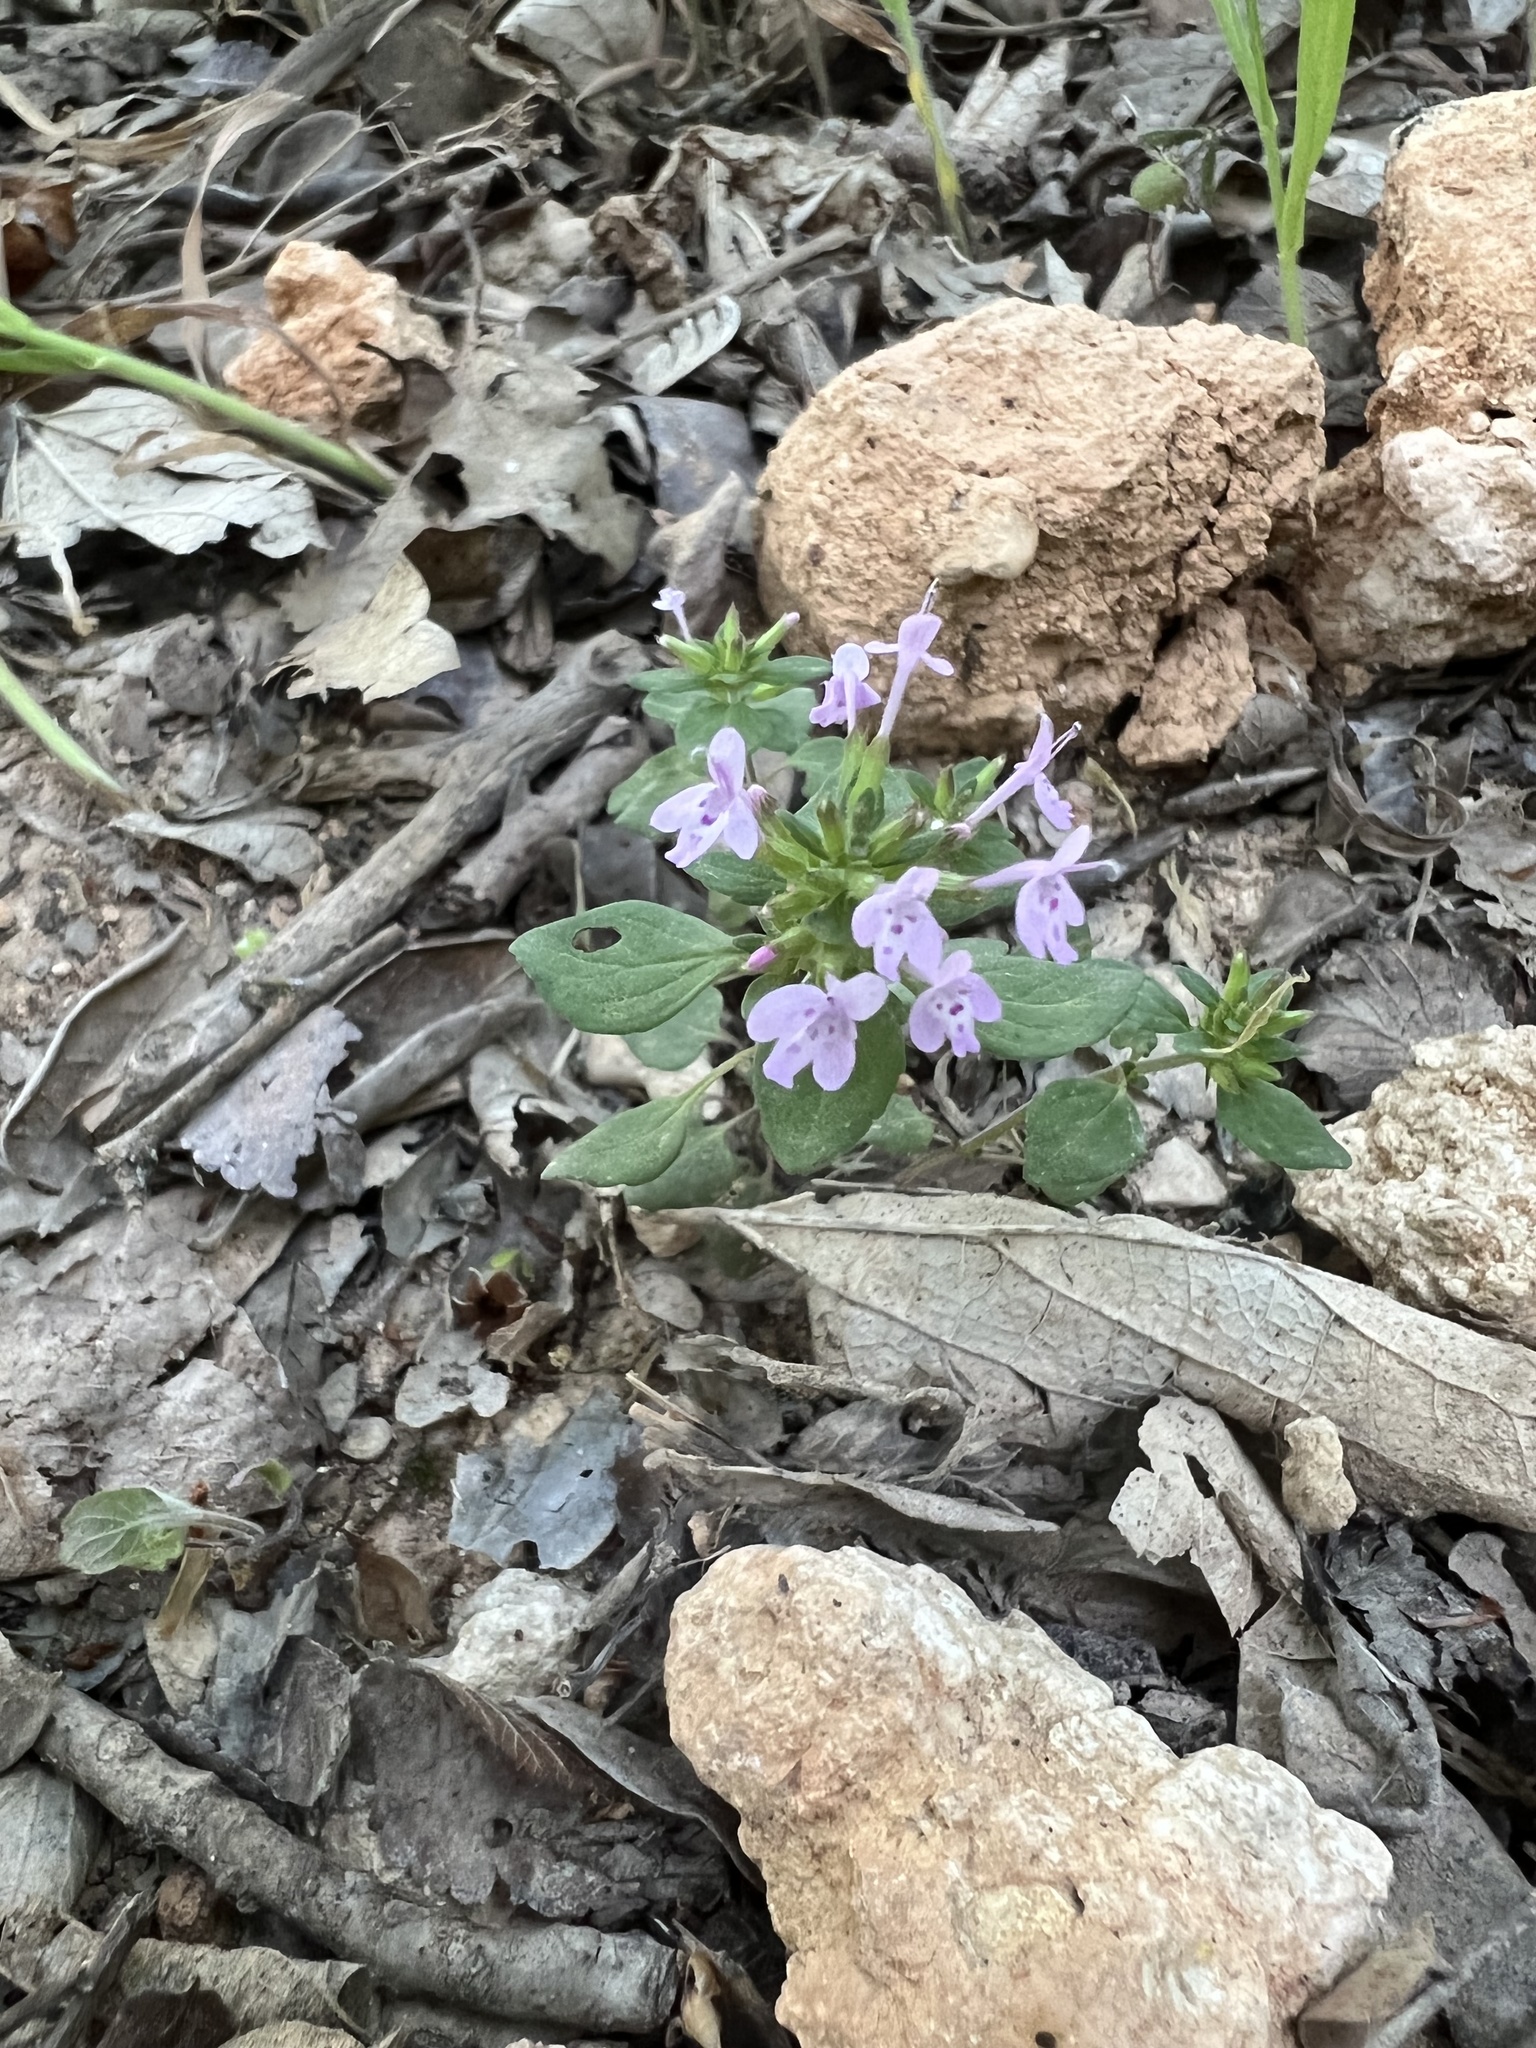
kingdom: Plantae
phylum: Tracheophyta
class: Magnoliopsida
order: Lamiales
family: Lamiaceae
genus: Hedeoma
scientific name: Hedeoma acinoides
